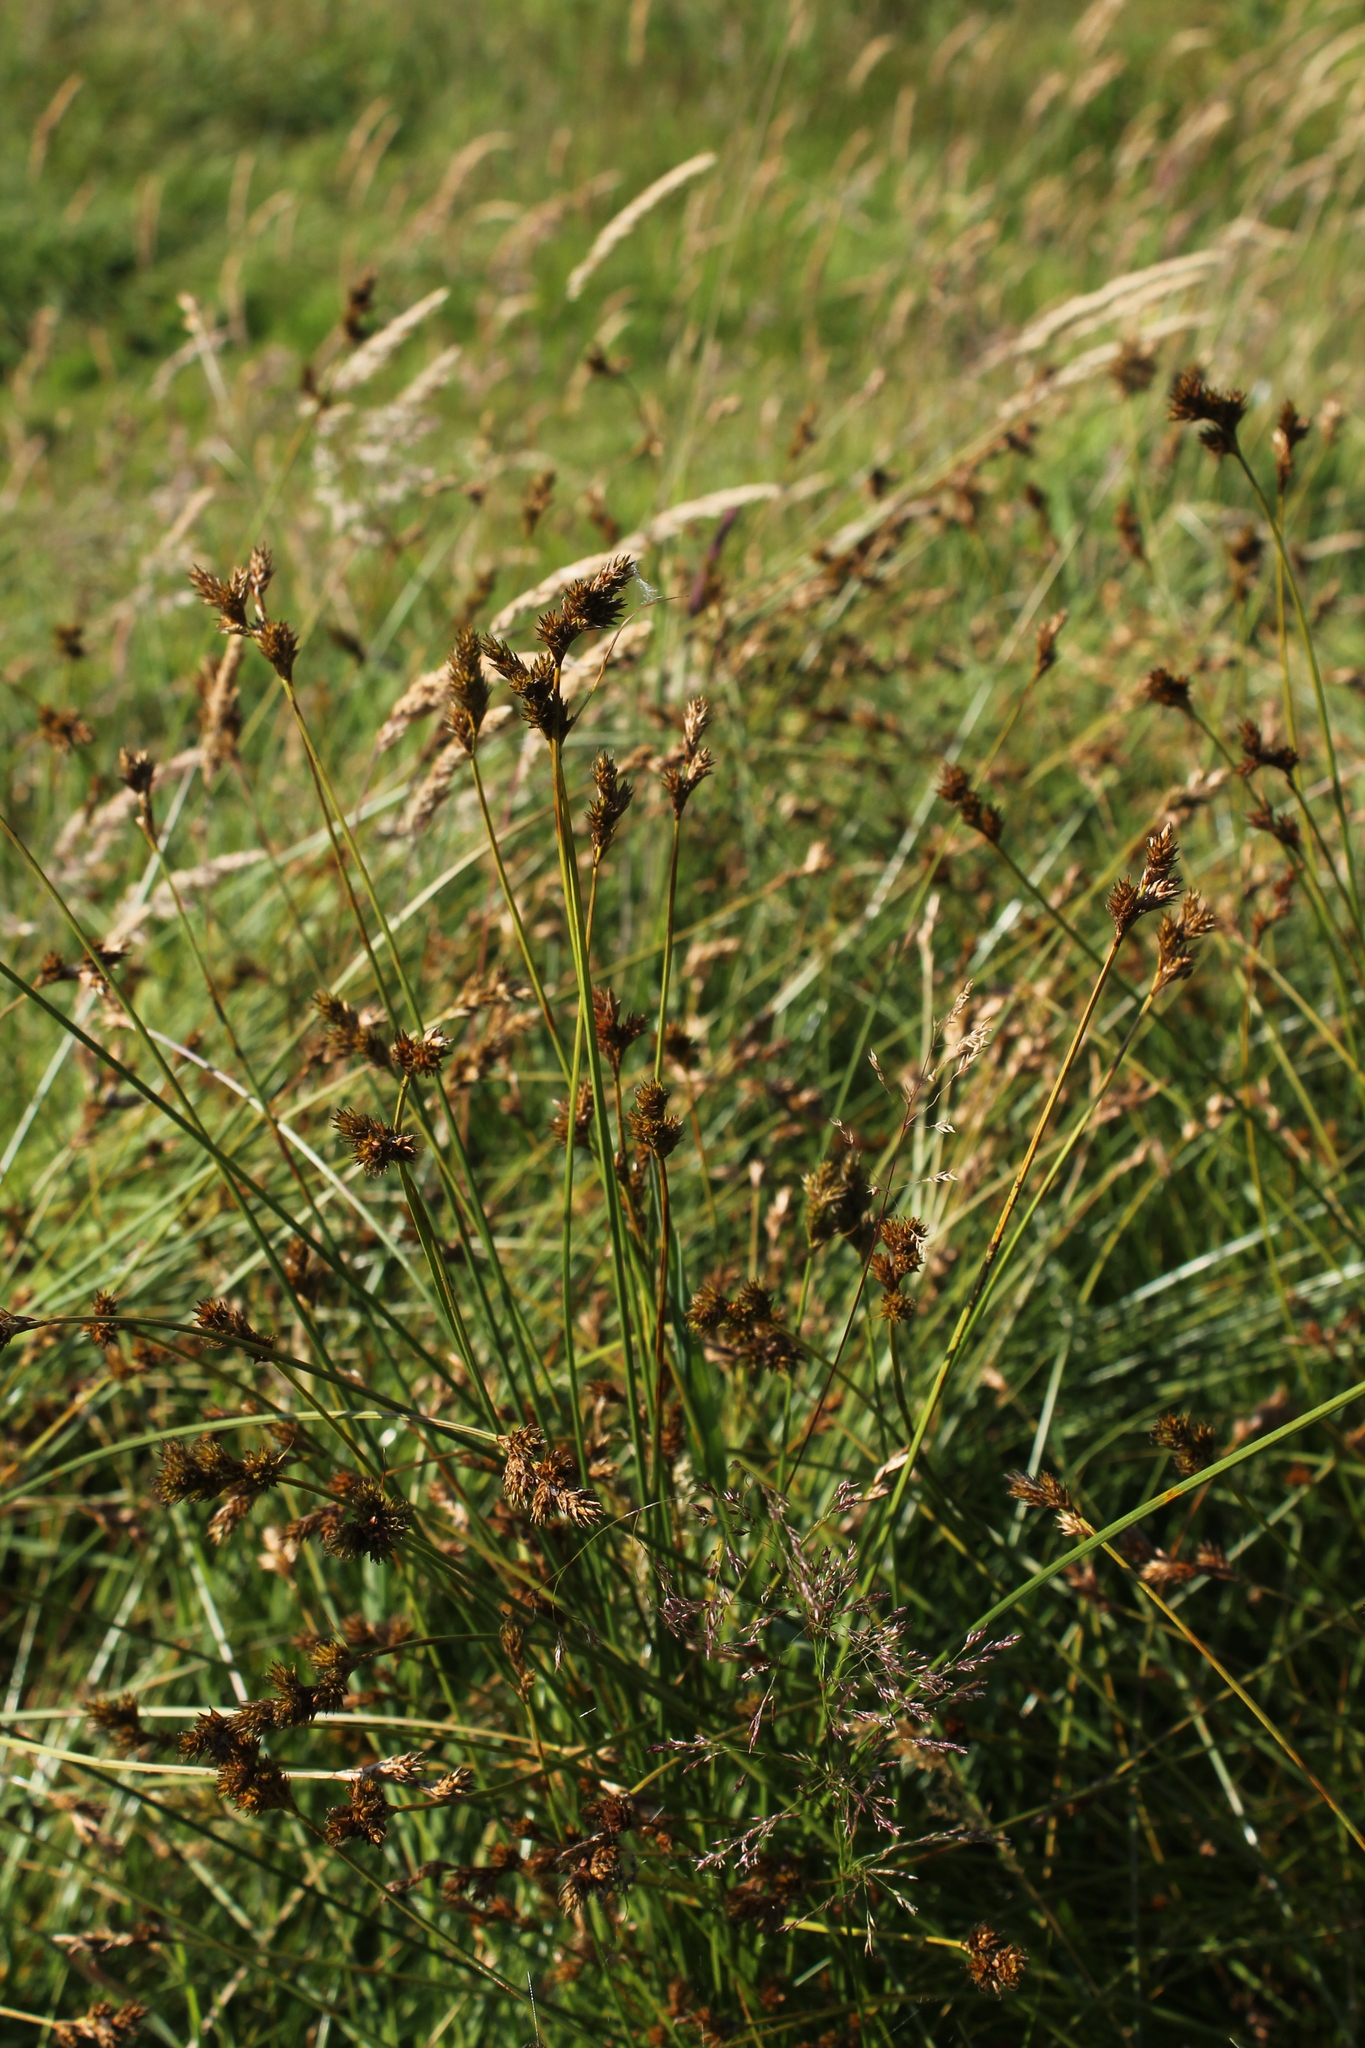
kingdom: Plantae
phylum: Tracheophyta
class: Liliopsida
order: Poales
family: Cyperaceae
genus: Carex
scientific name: Carex leporina
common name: Oval sedge
